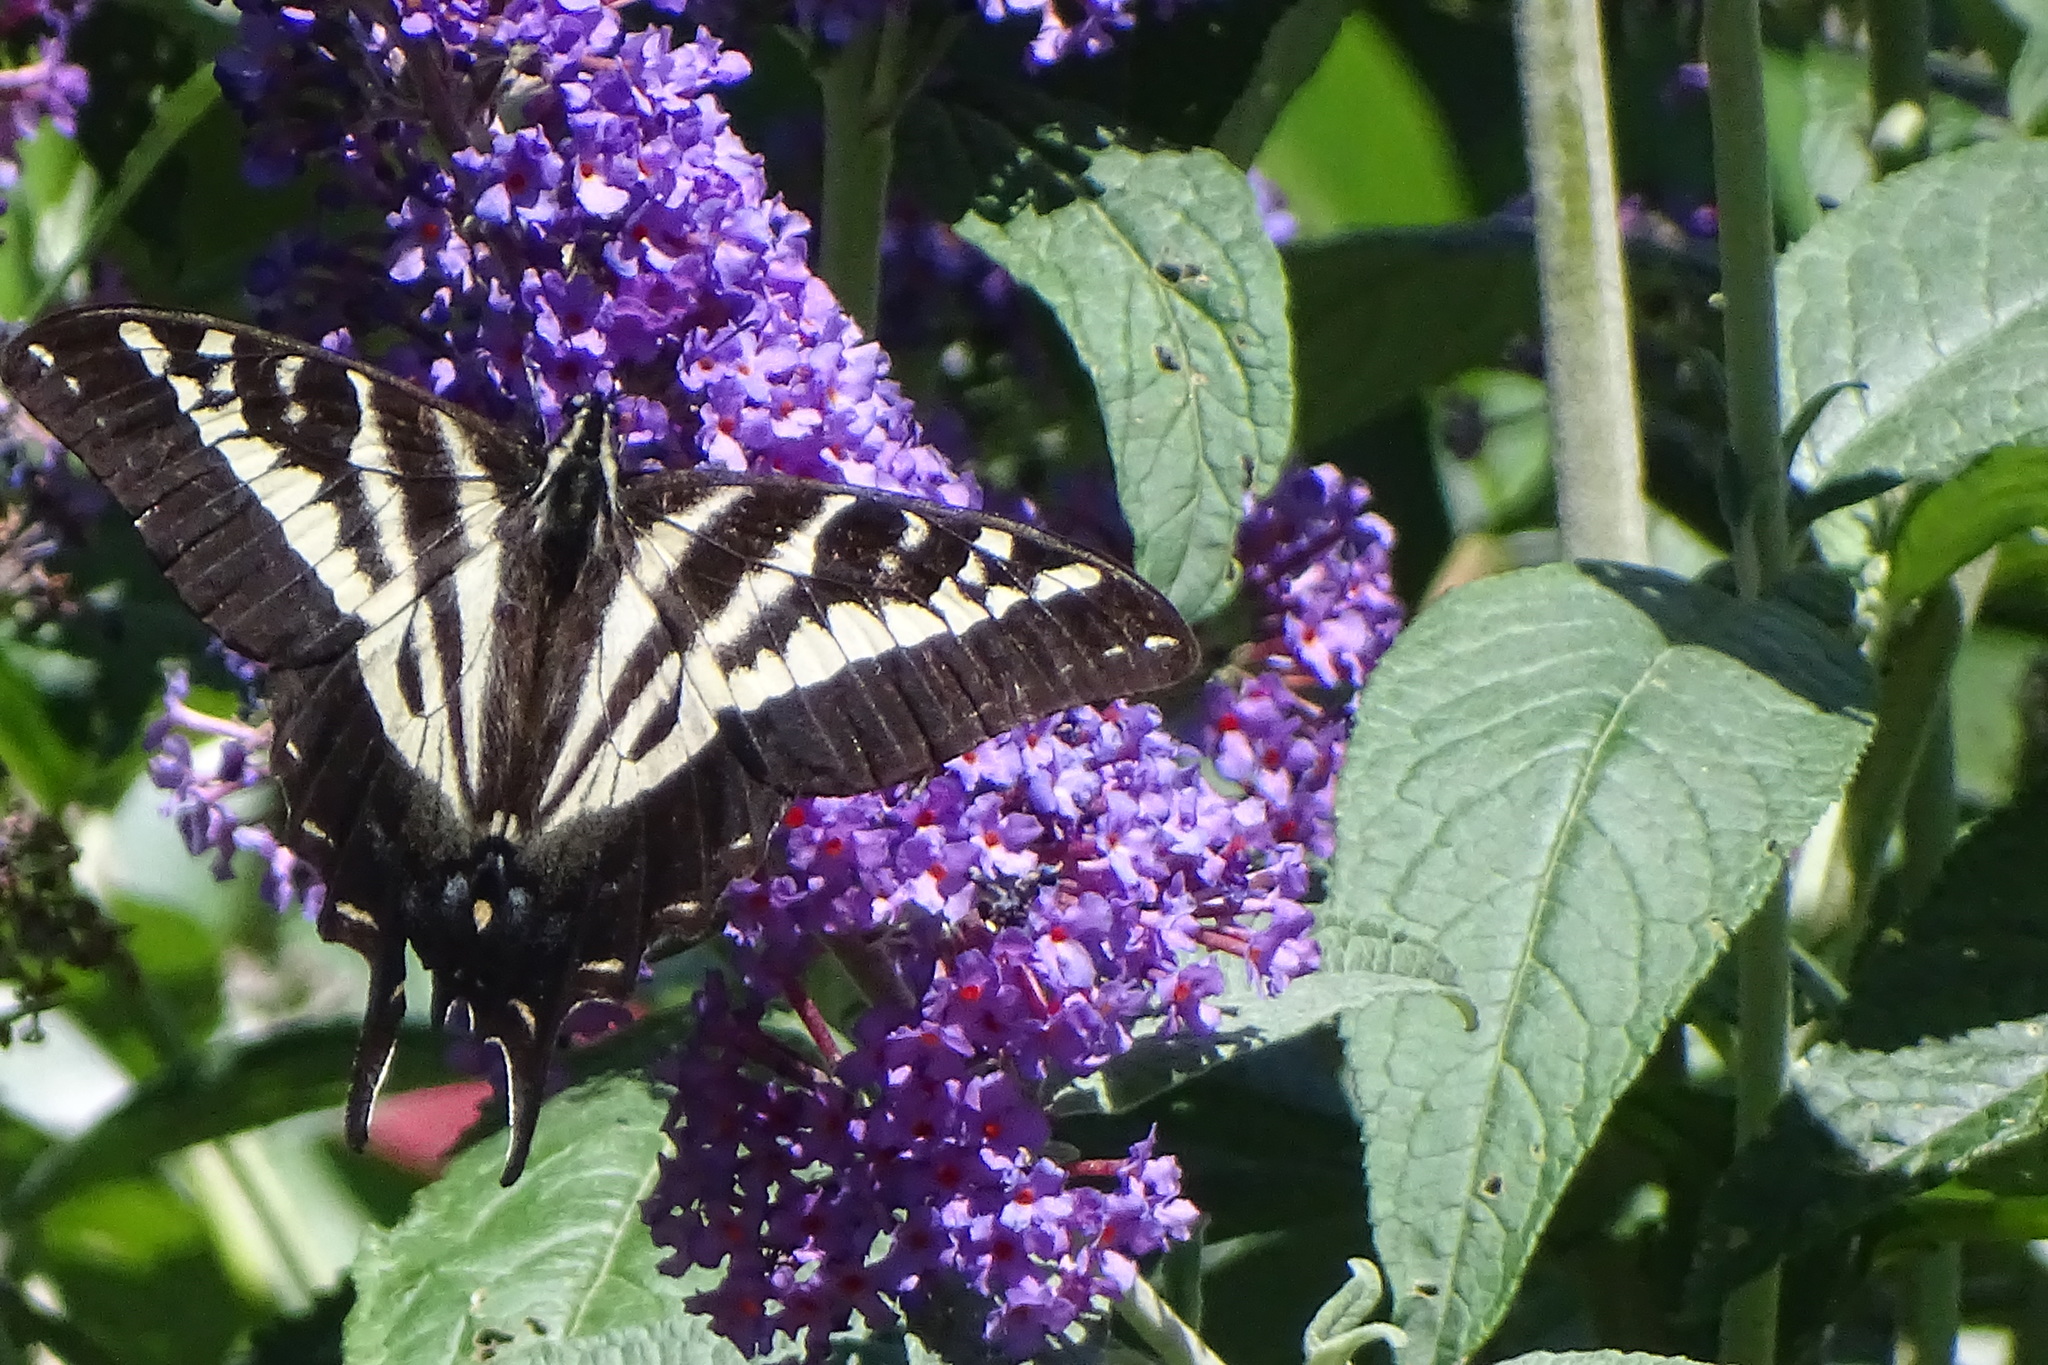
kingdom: Animalia
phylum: Arthropoda
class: Insecta
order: Lepidoptera
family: Papilionidae
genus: Papilio
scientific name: Papilio eurymedon
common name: Pale tiger swallowtail
